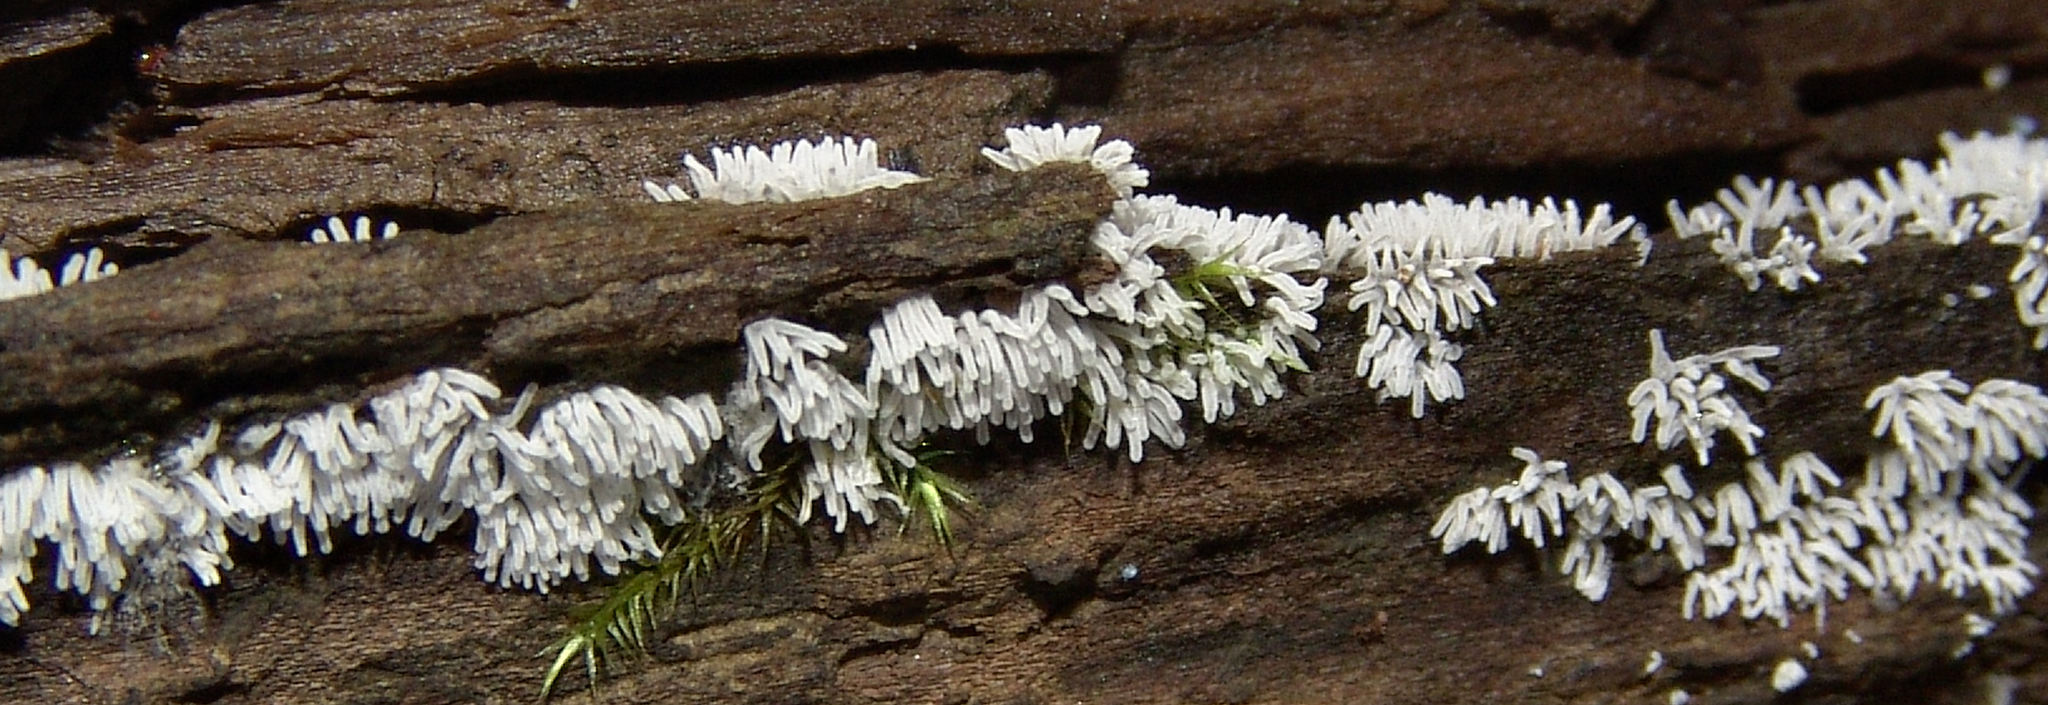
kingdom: Protozoa
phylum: Mycetozoa
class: Protosteliomycetes
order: Ceratiomyxales
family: Ceratiomyxaceae
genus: Ceratiomyxa
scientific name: Ceratiomyxa fruticulosa
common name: Honeycomb coral slime mold
